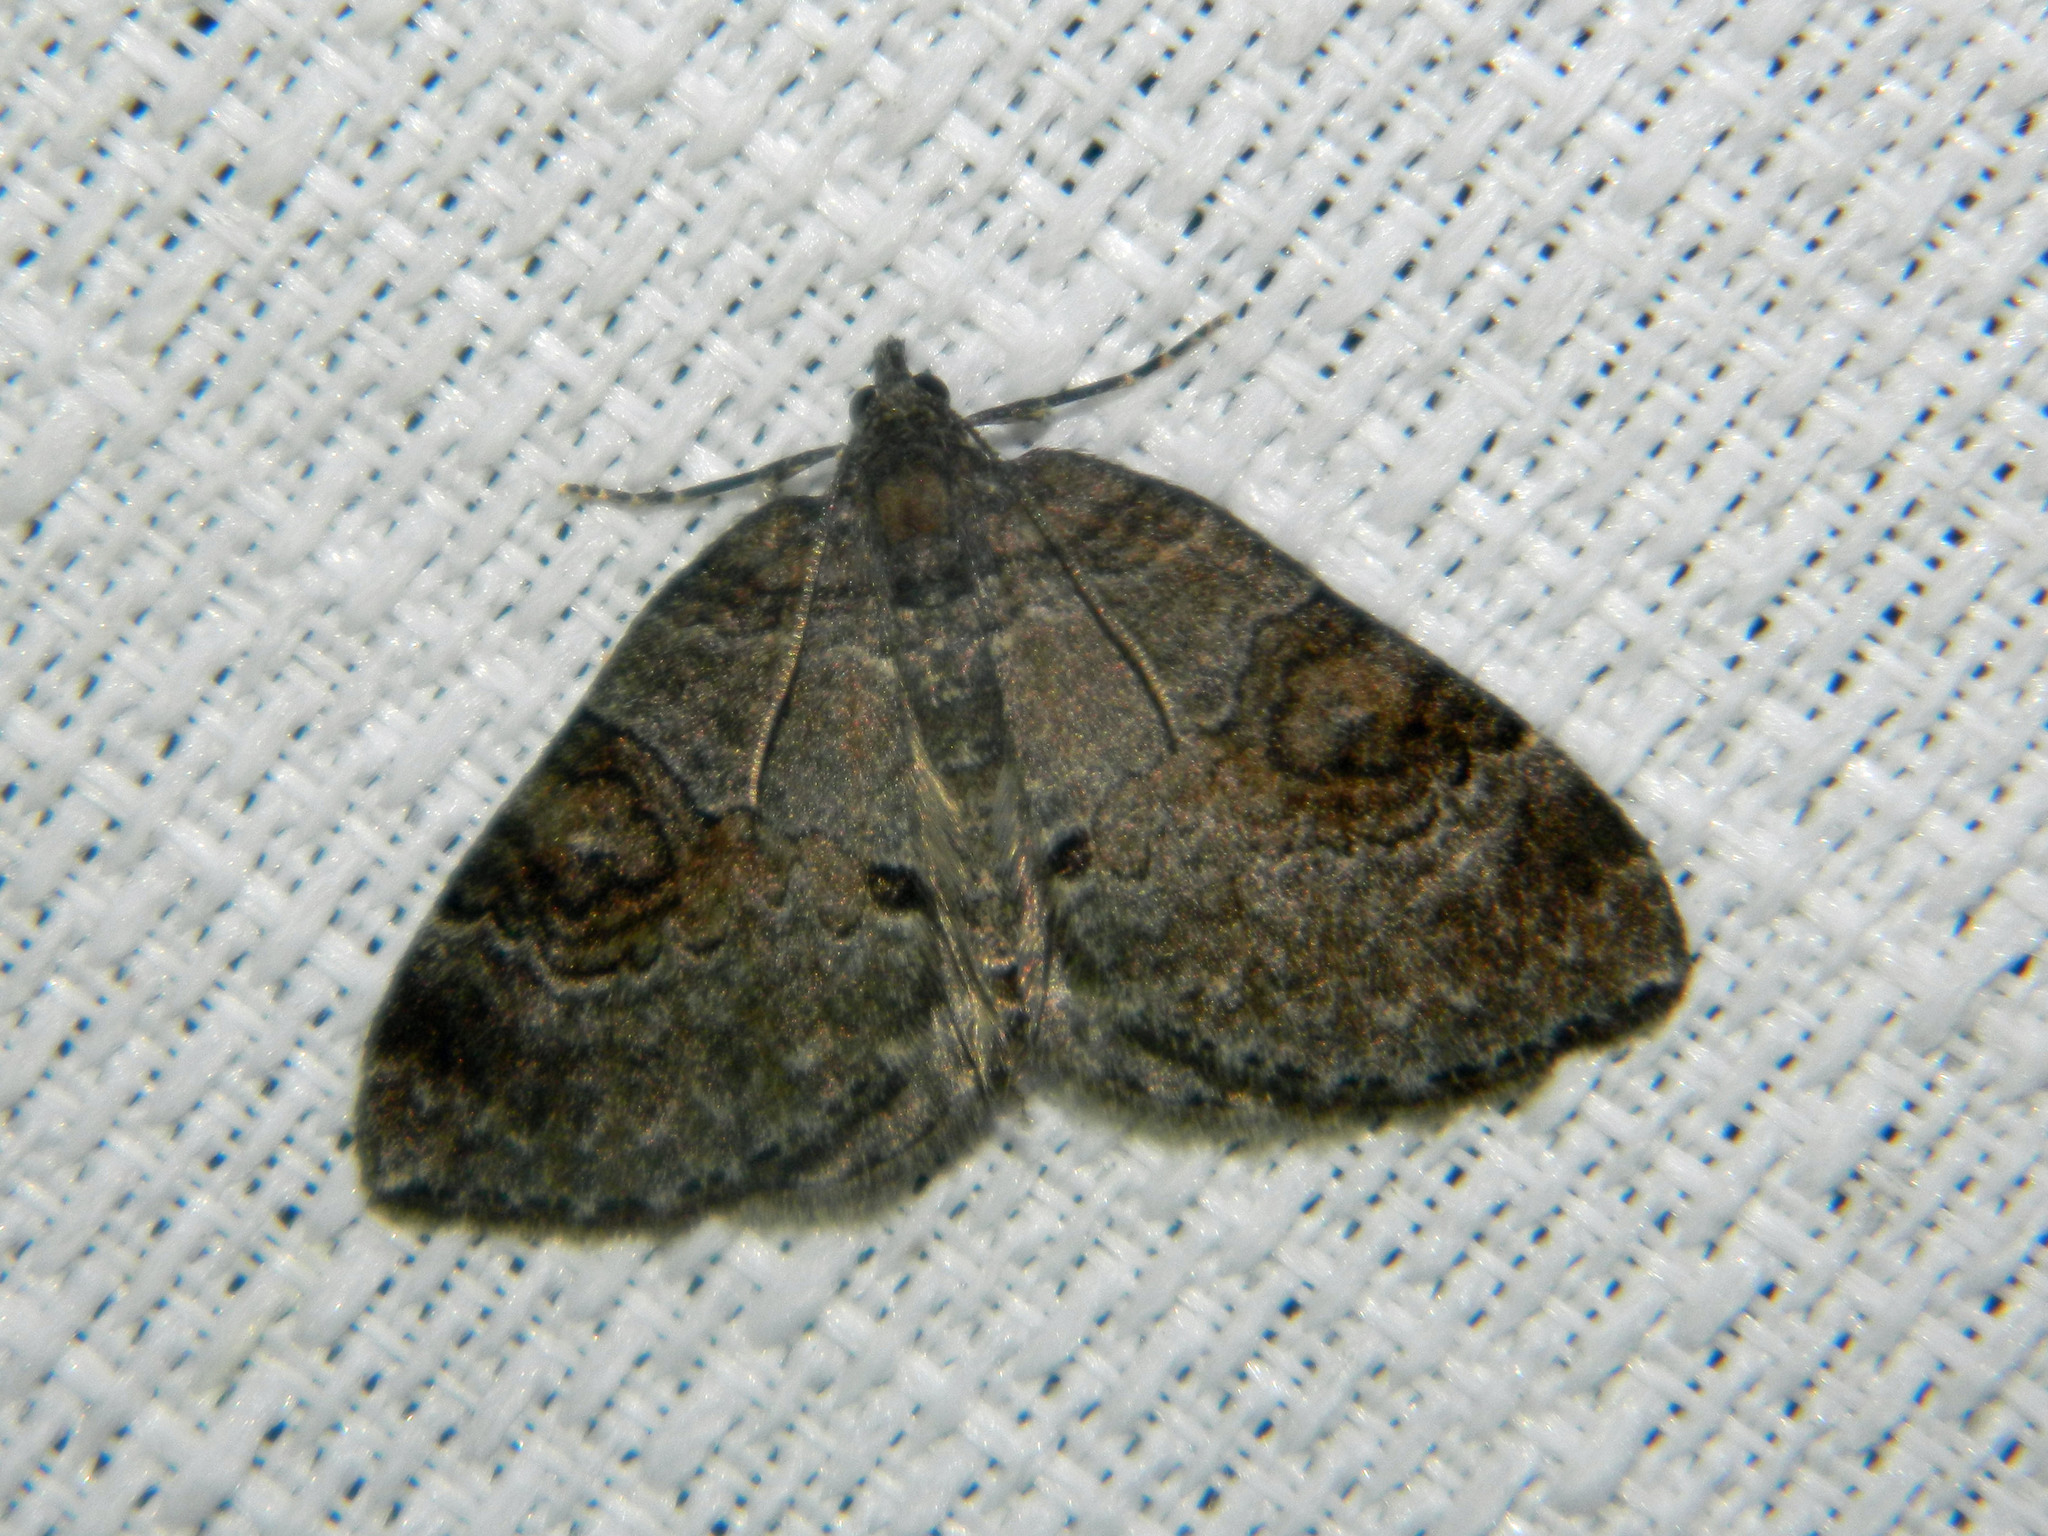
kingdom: Animalia
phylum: Arthropoda
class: Insecta
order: Lepidoptera
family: Geometridae
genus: Plemyria
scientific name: Plemyria georgii
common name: George's carpet moth
